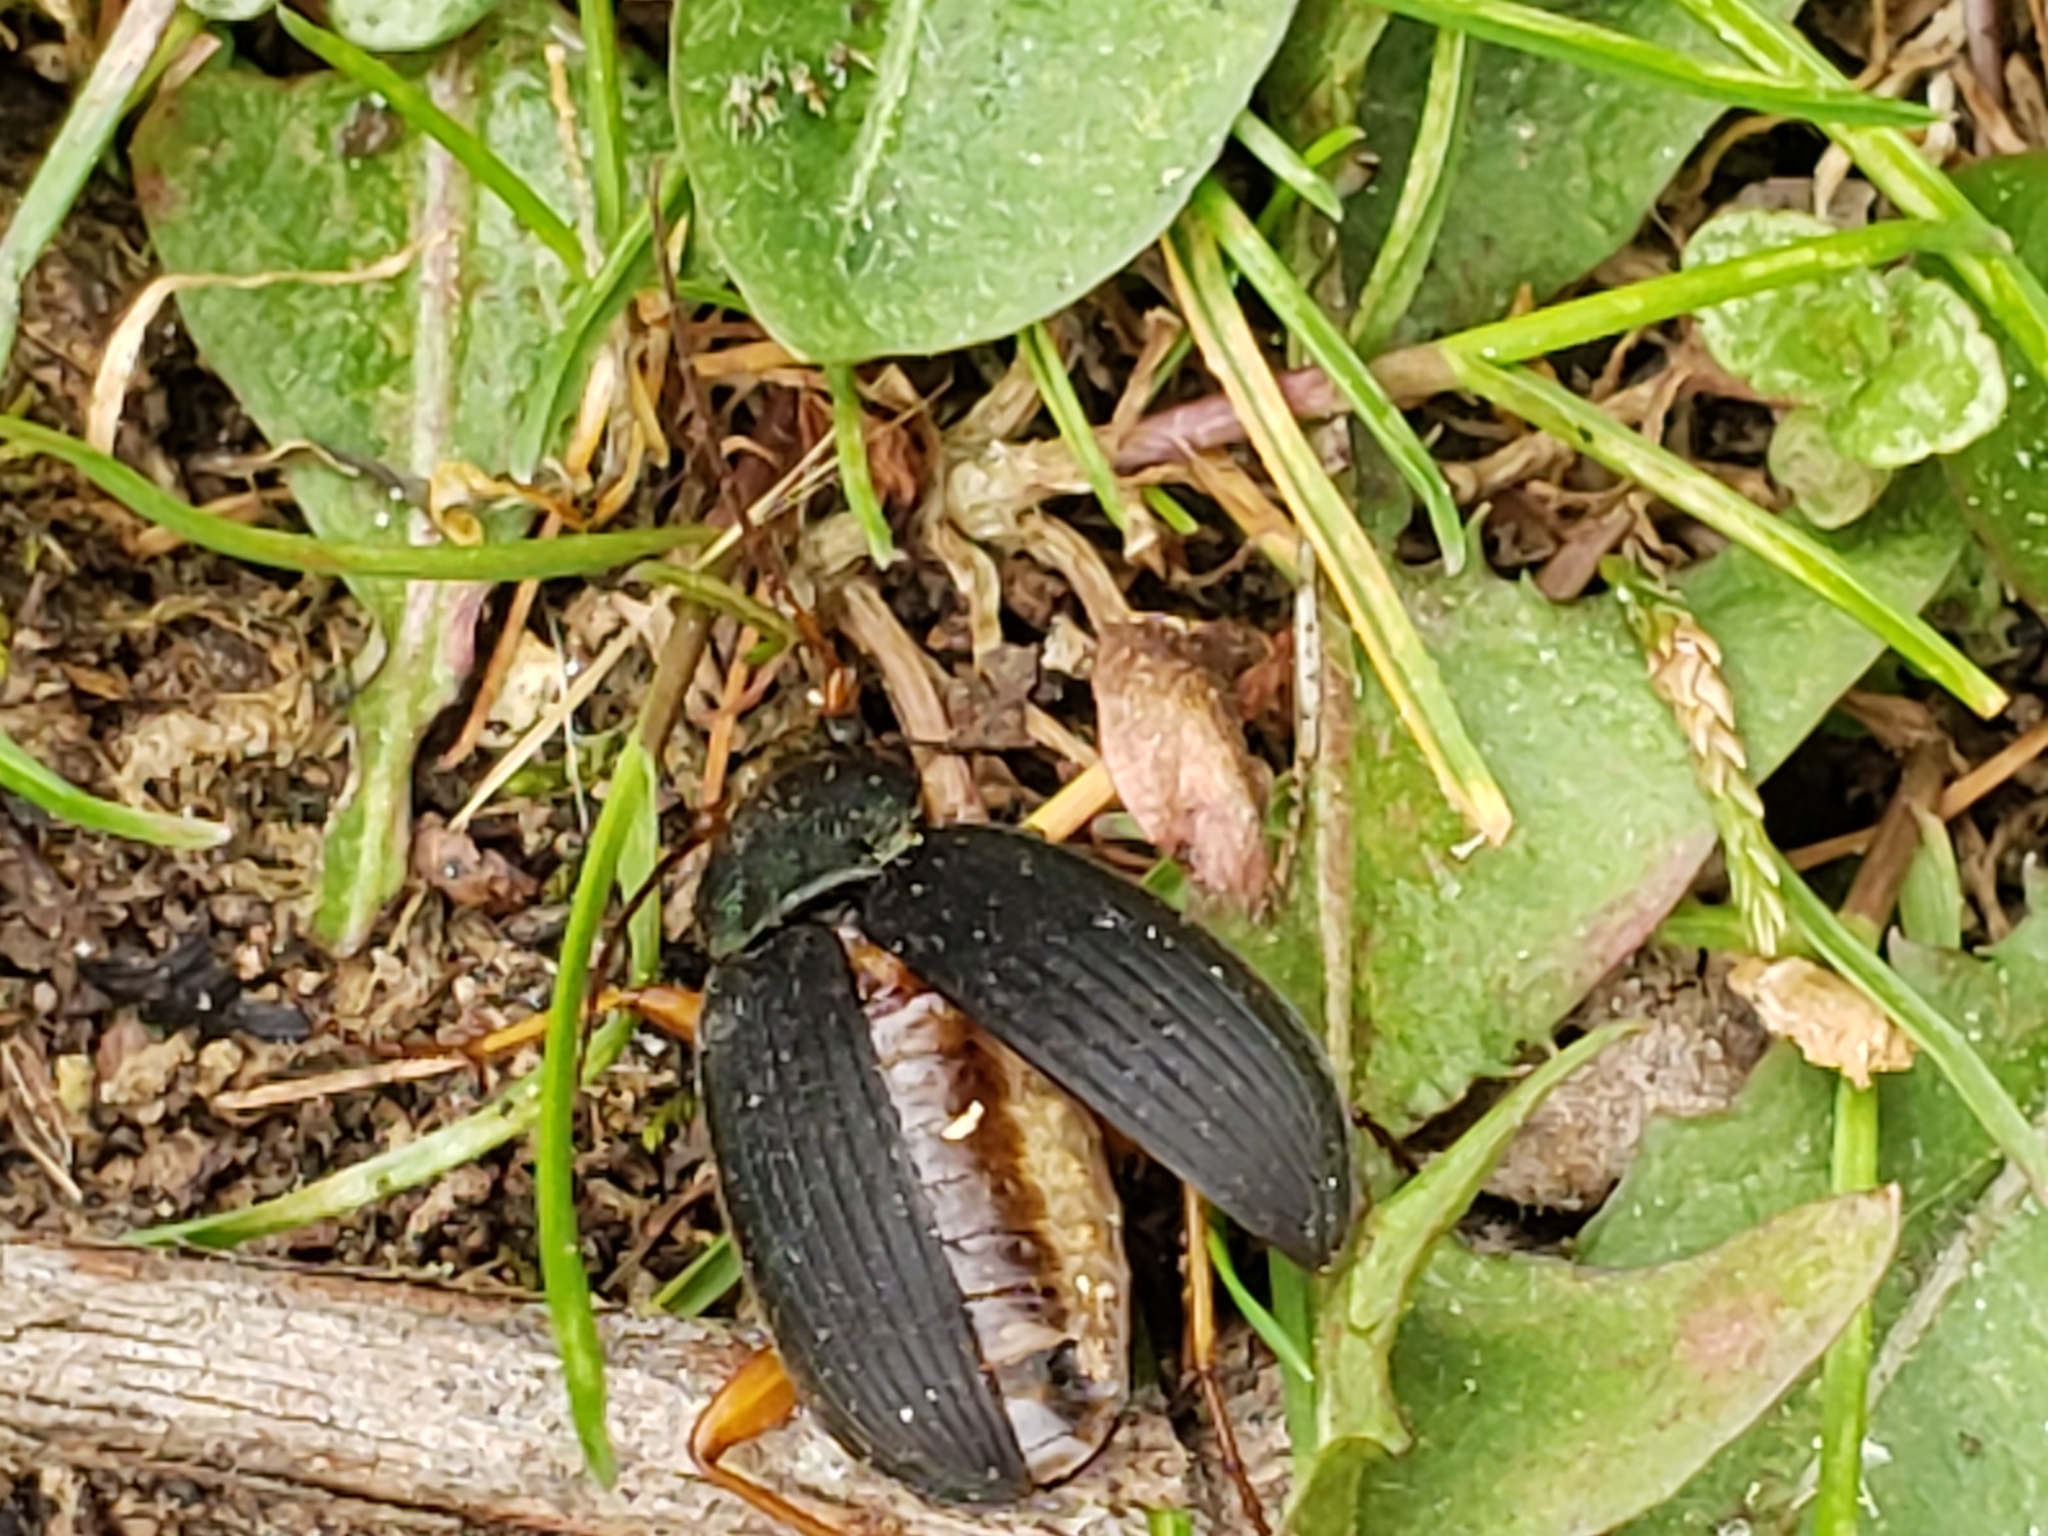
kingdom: Animalia
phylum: Arthropoda
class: Insecta
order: Coleoptera
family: Carabidae
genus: Chlaenius
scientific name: Chlaenius aestivus
